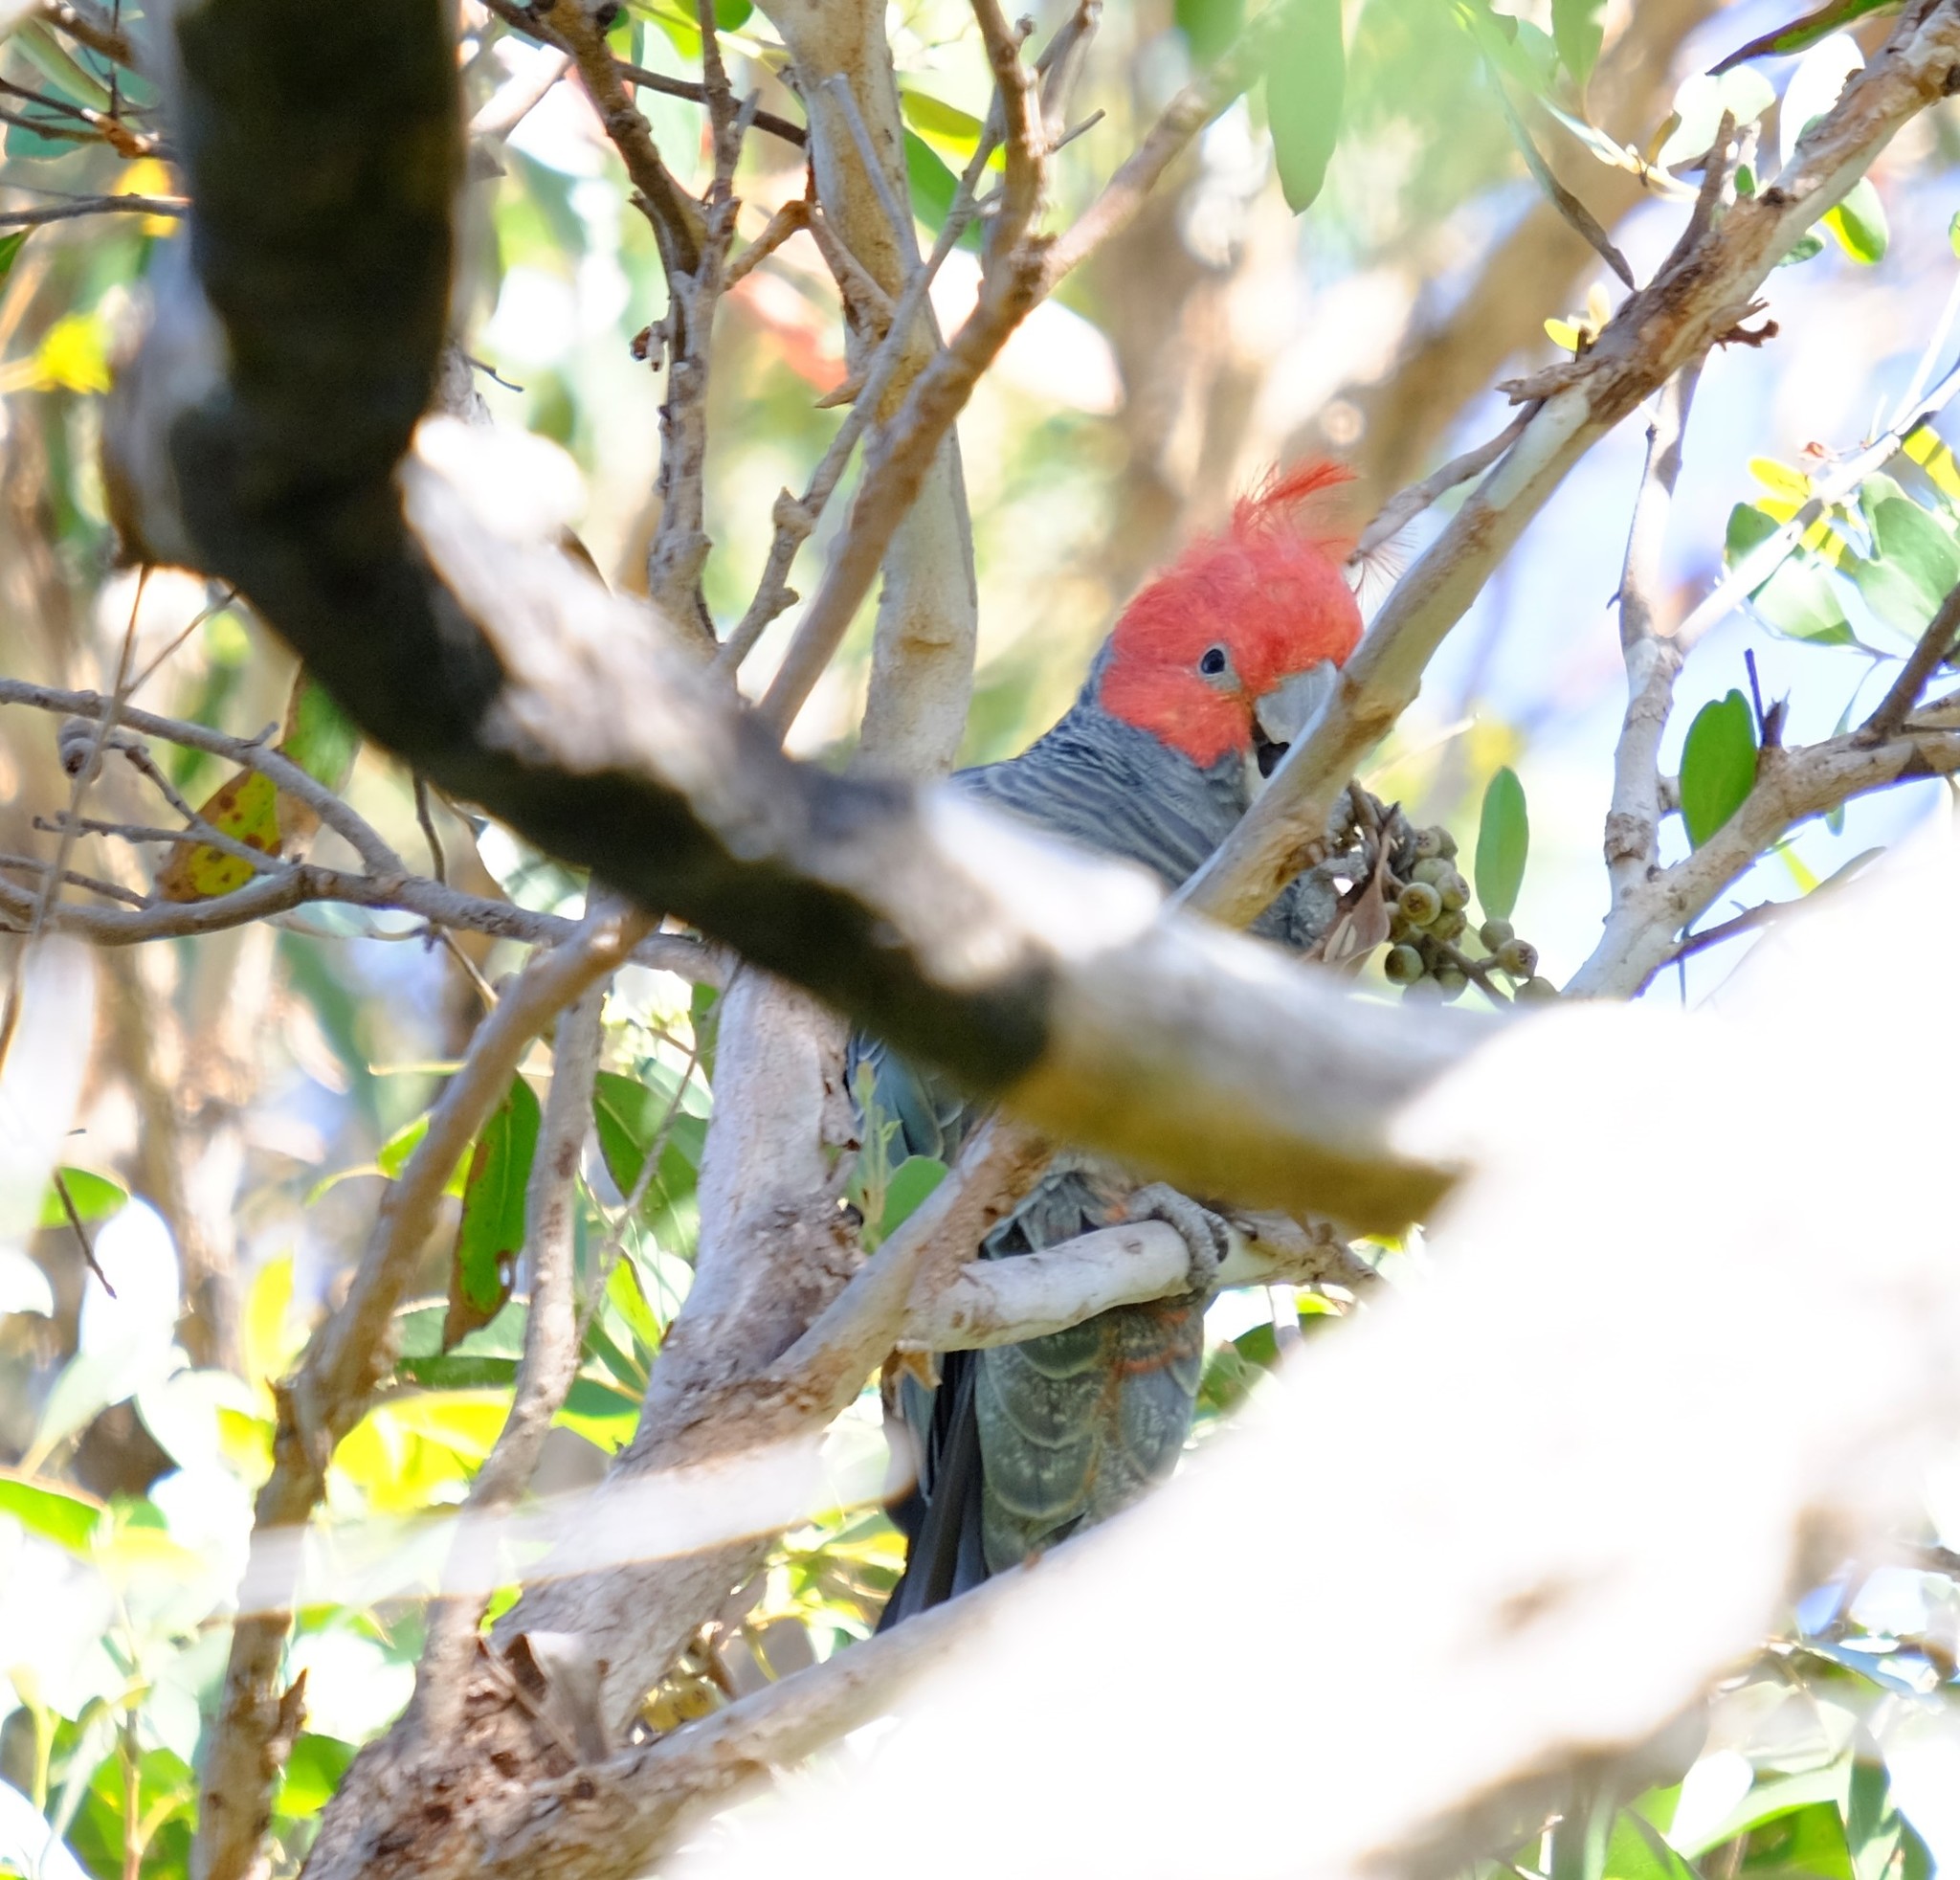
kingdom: Animalia
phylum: Chordata
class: Aves
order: Psittaciformes
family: Psittacidae
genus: Callocephalon
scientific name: Callocephalon fimbriatum
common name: Gang-gang cockatoo
